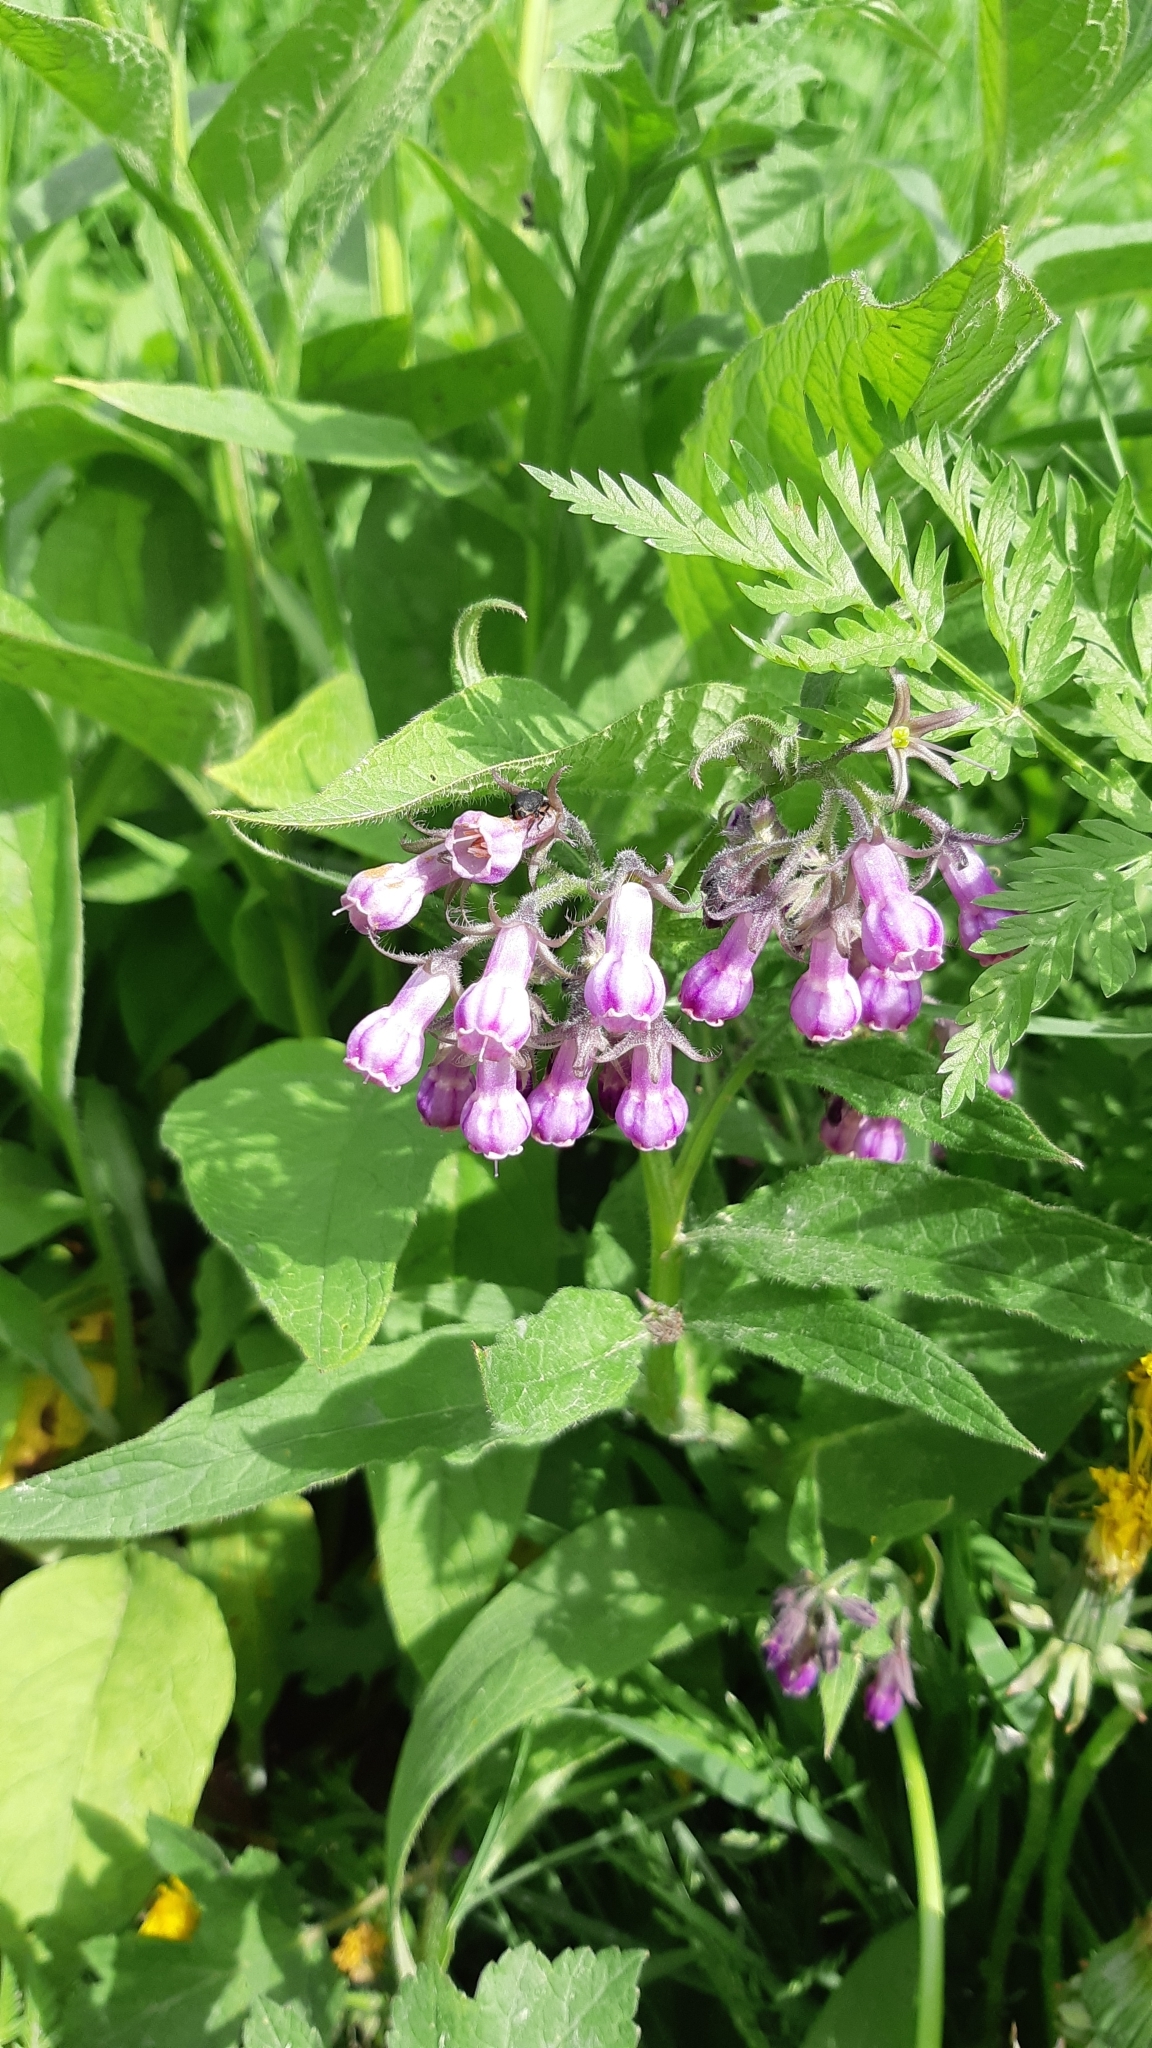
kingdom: Plantae
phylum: Tracheophyta
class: Magnoliopsida
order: Boraginales
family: Boraginaceae
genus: Symphytum
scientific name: Symphytum officinale
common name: Common comfrey
